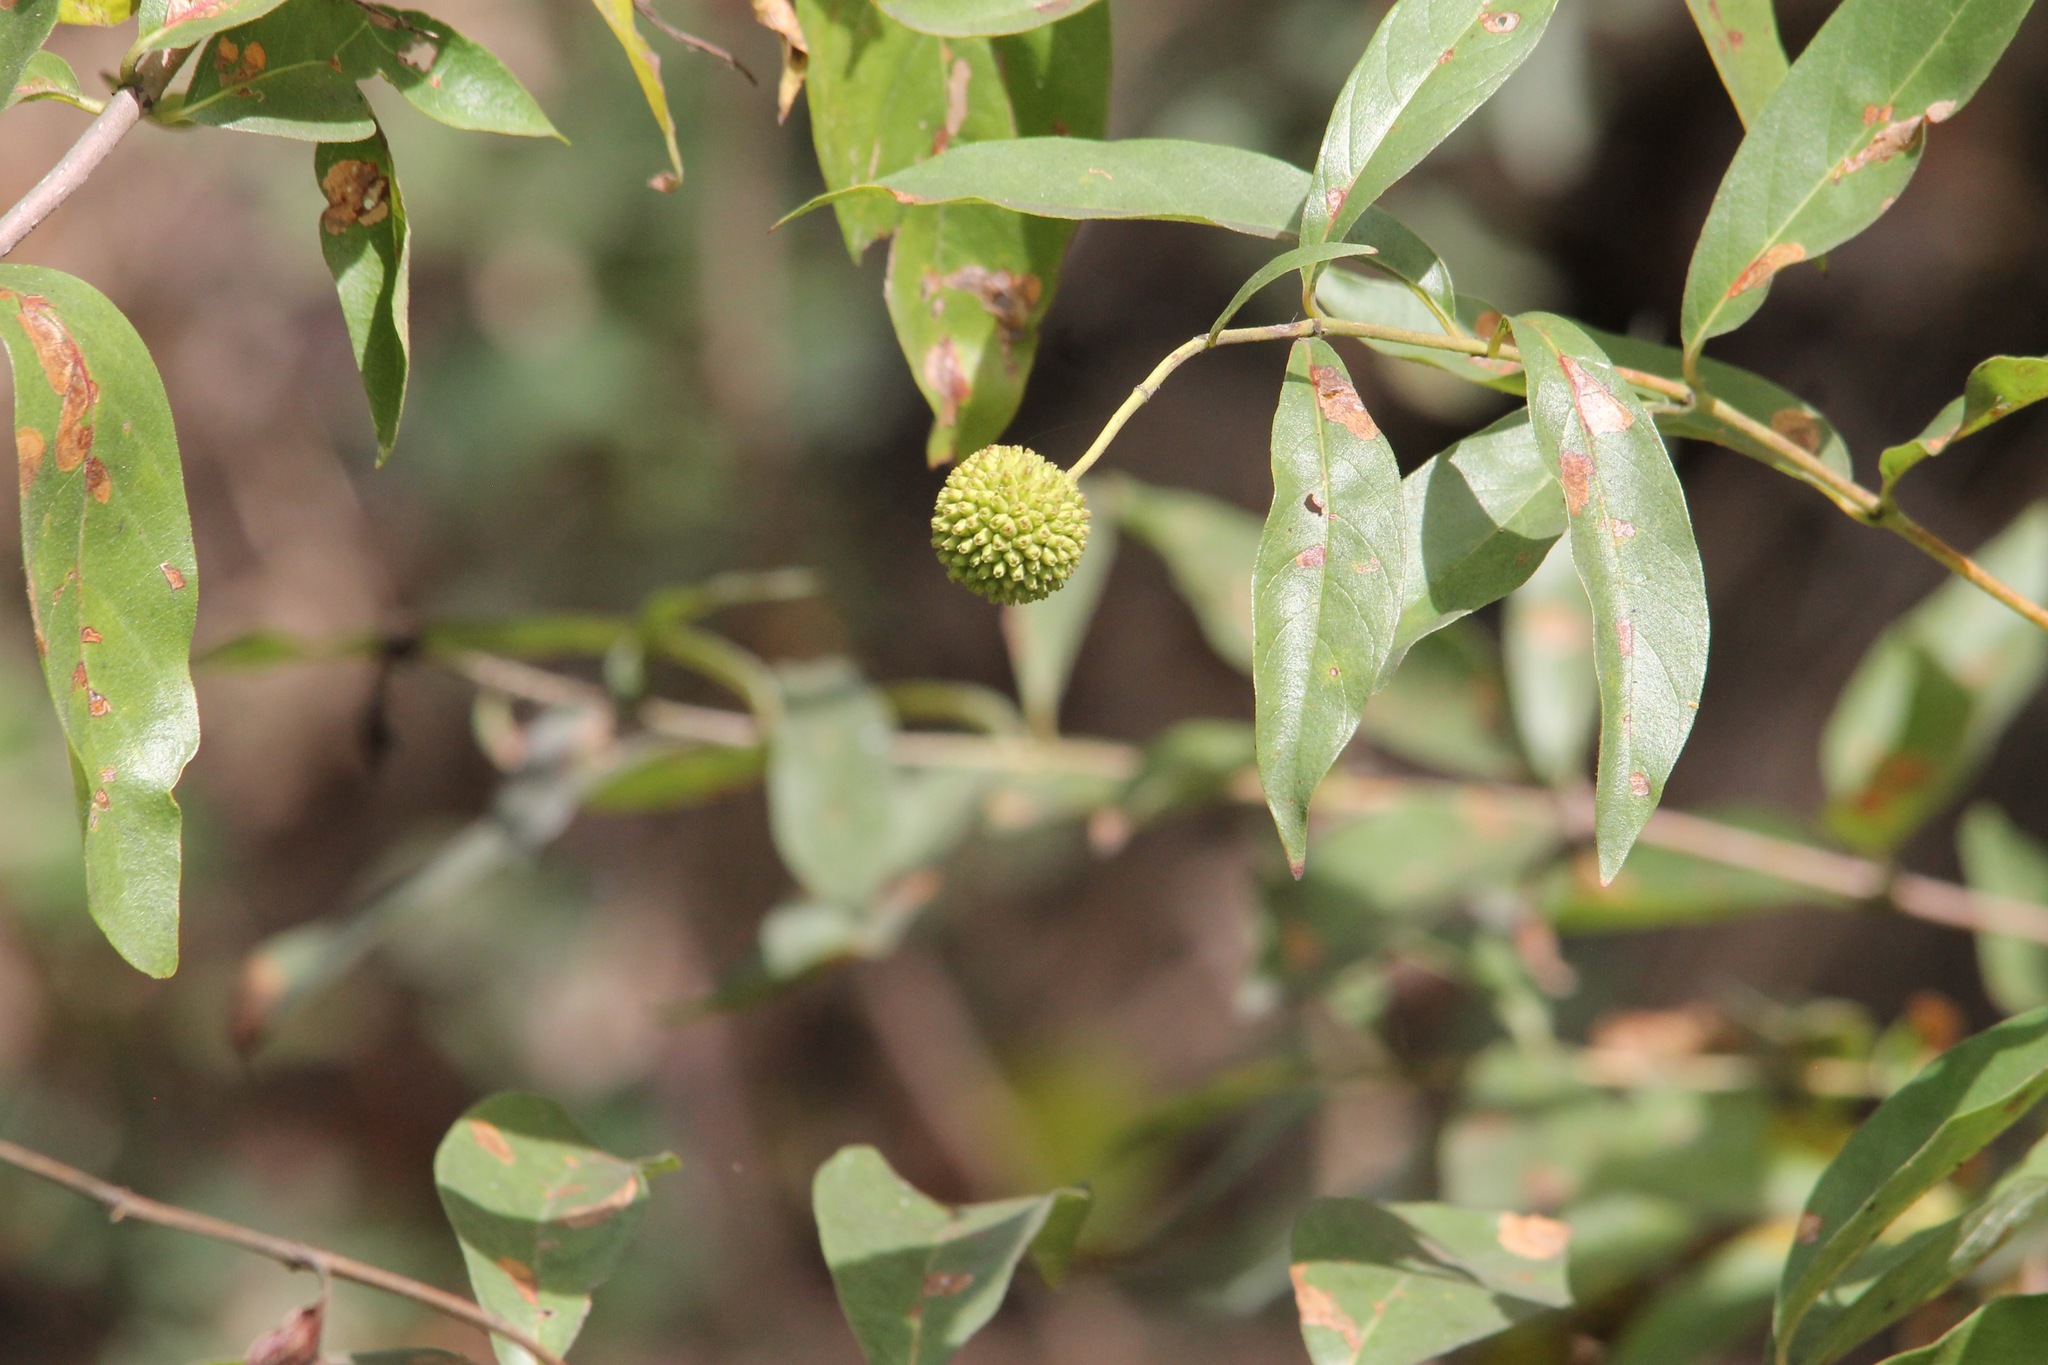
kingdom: Plantae
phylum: Tracheophyta
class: Magnoliopsida
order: Gentianales
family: Rubiaceae
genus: Cephalanthus
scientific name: Cephalanthus occidentalis
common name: Button-willow
